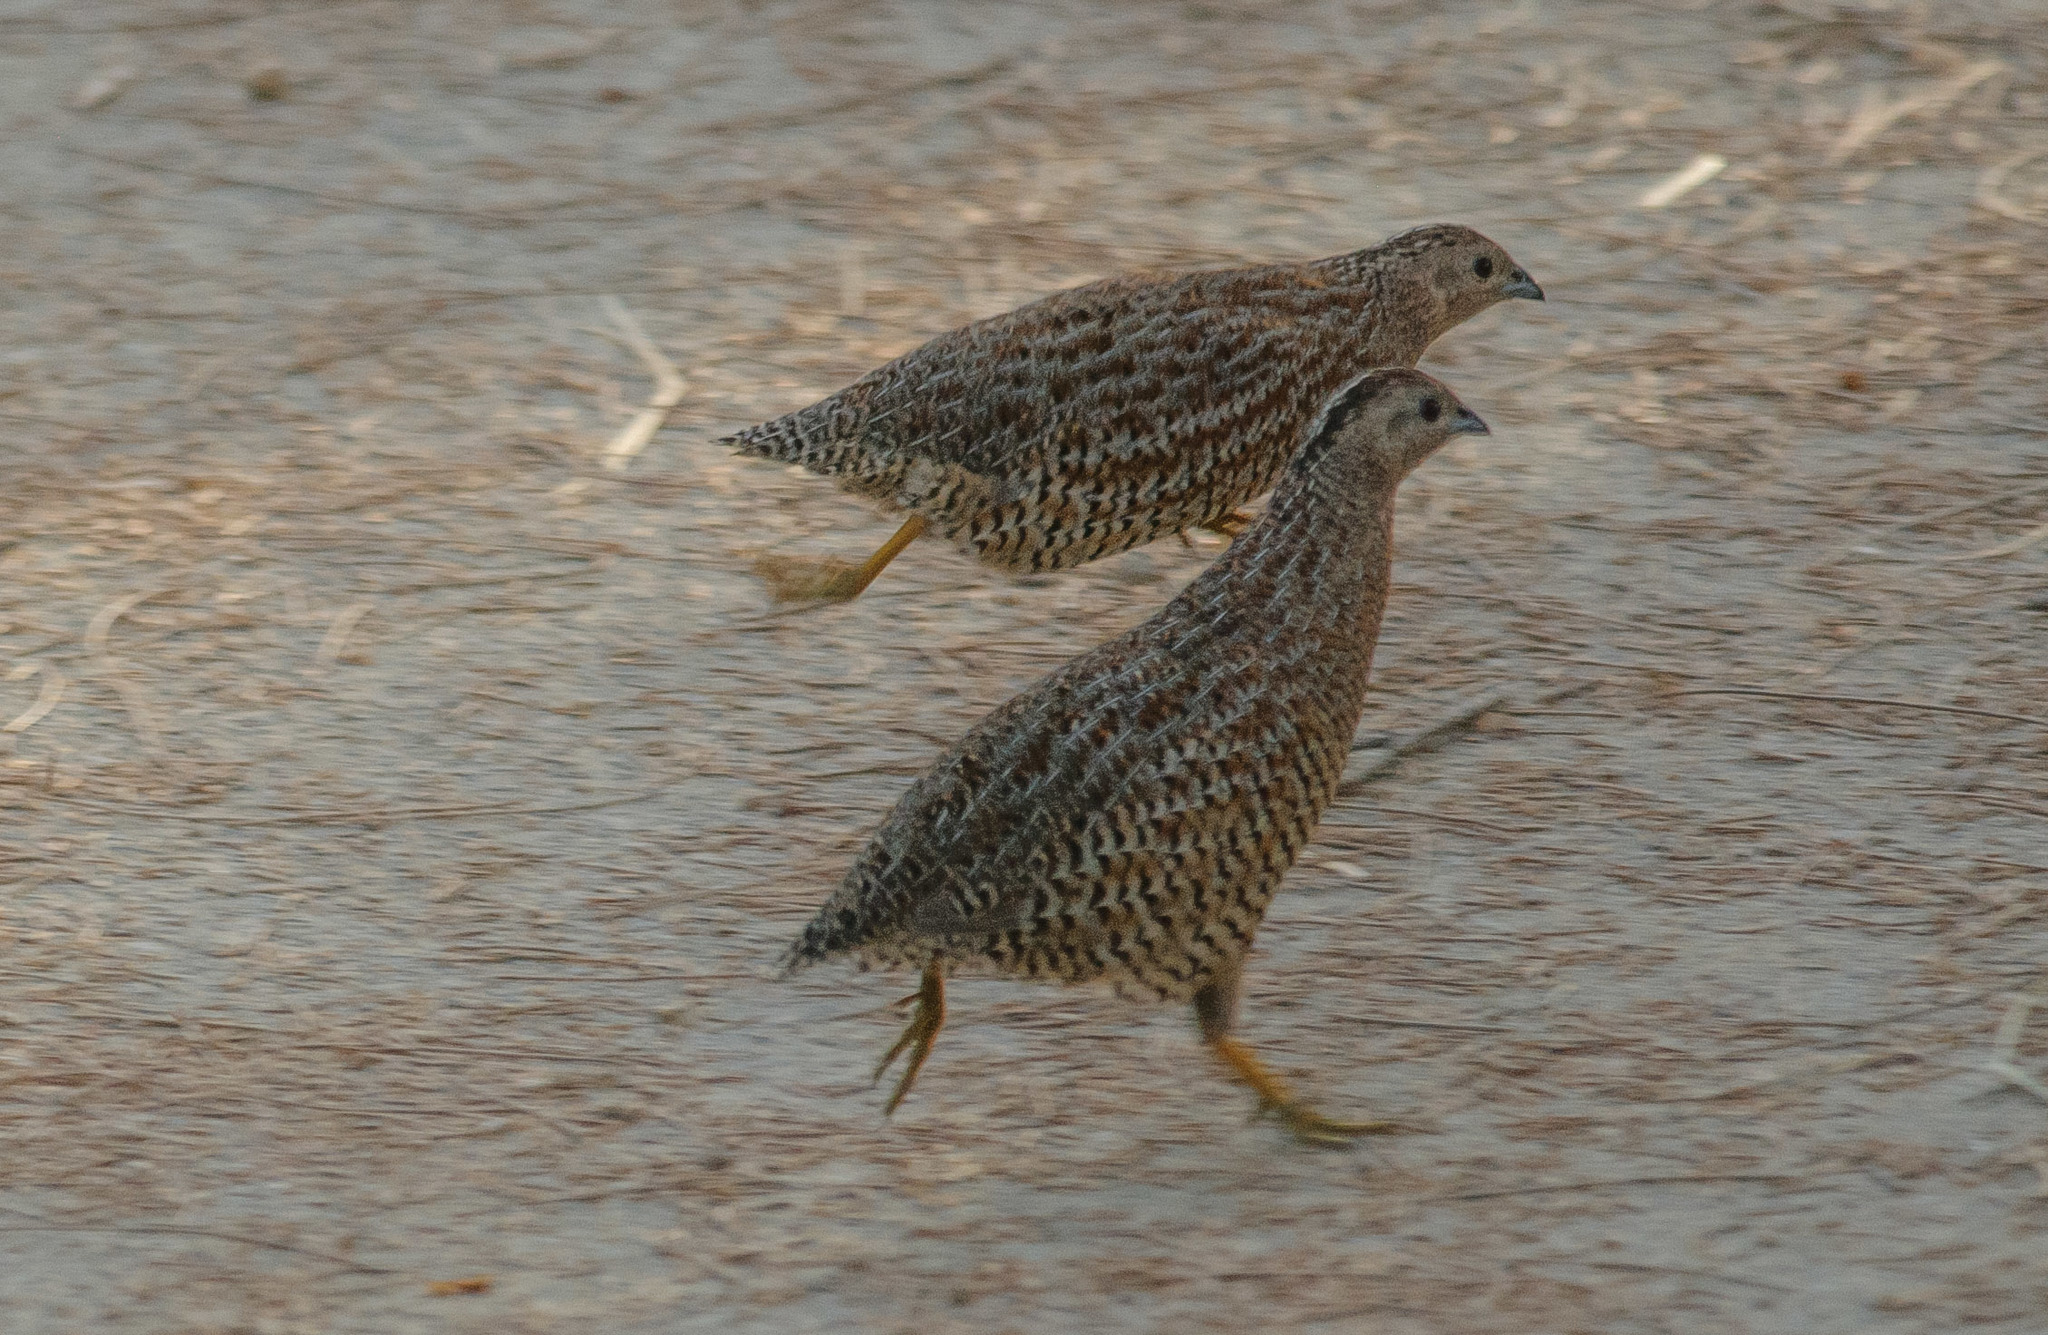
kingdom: Animalia
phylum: Chordata
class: Aves
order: Galliformes
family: Phasianidae
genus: Synoicus
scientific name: Synoicus ypsilophorus
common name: Brown quail
